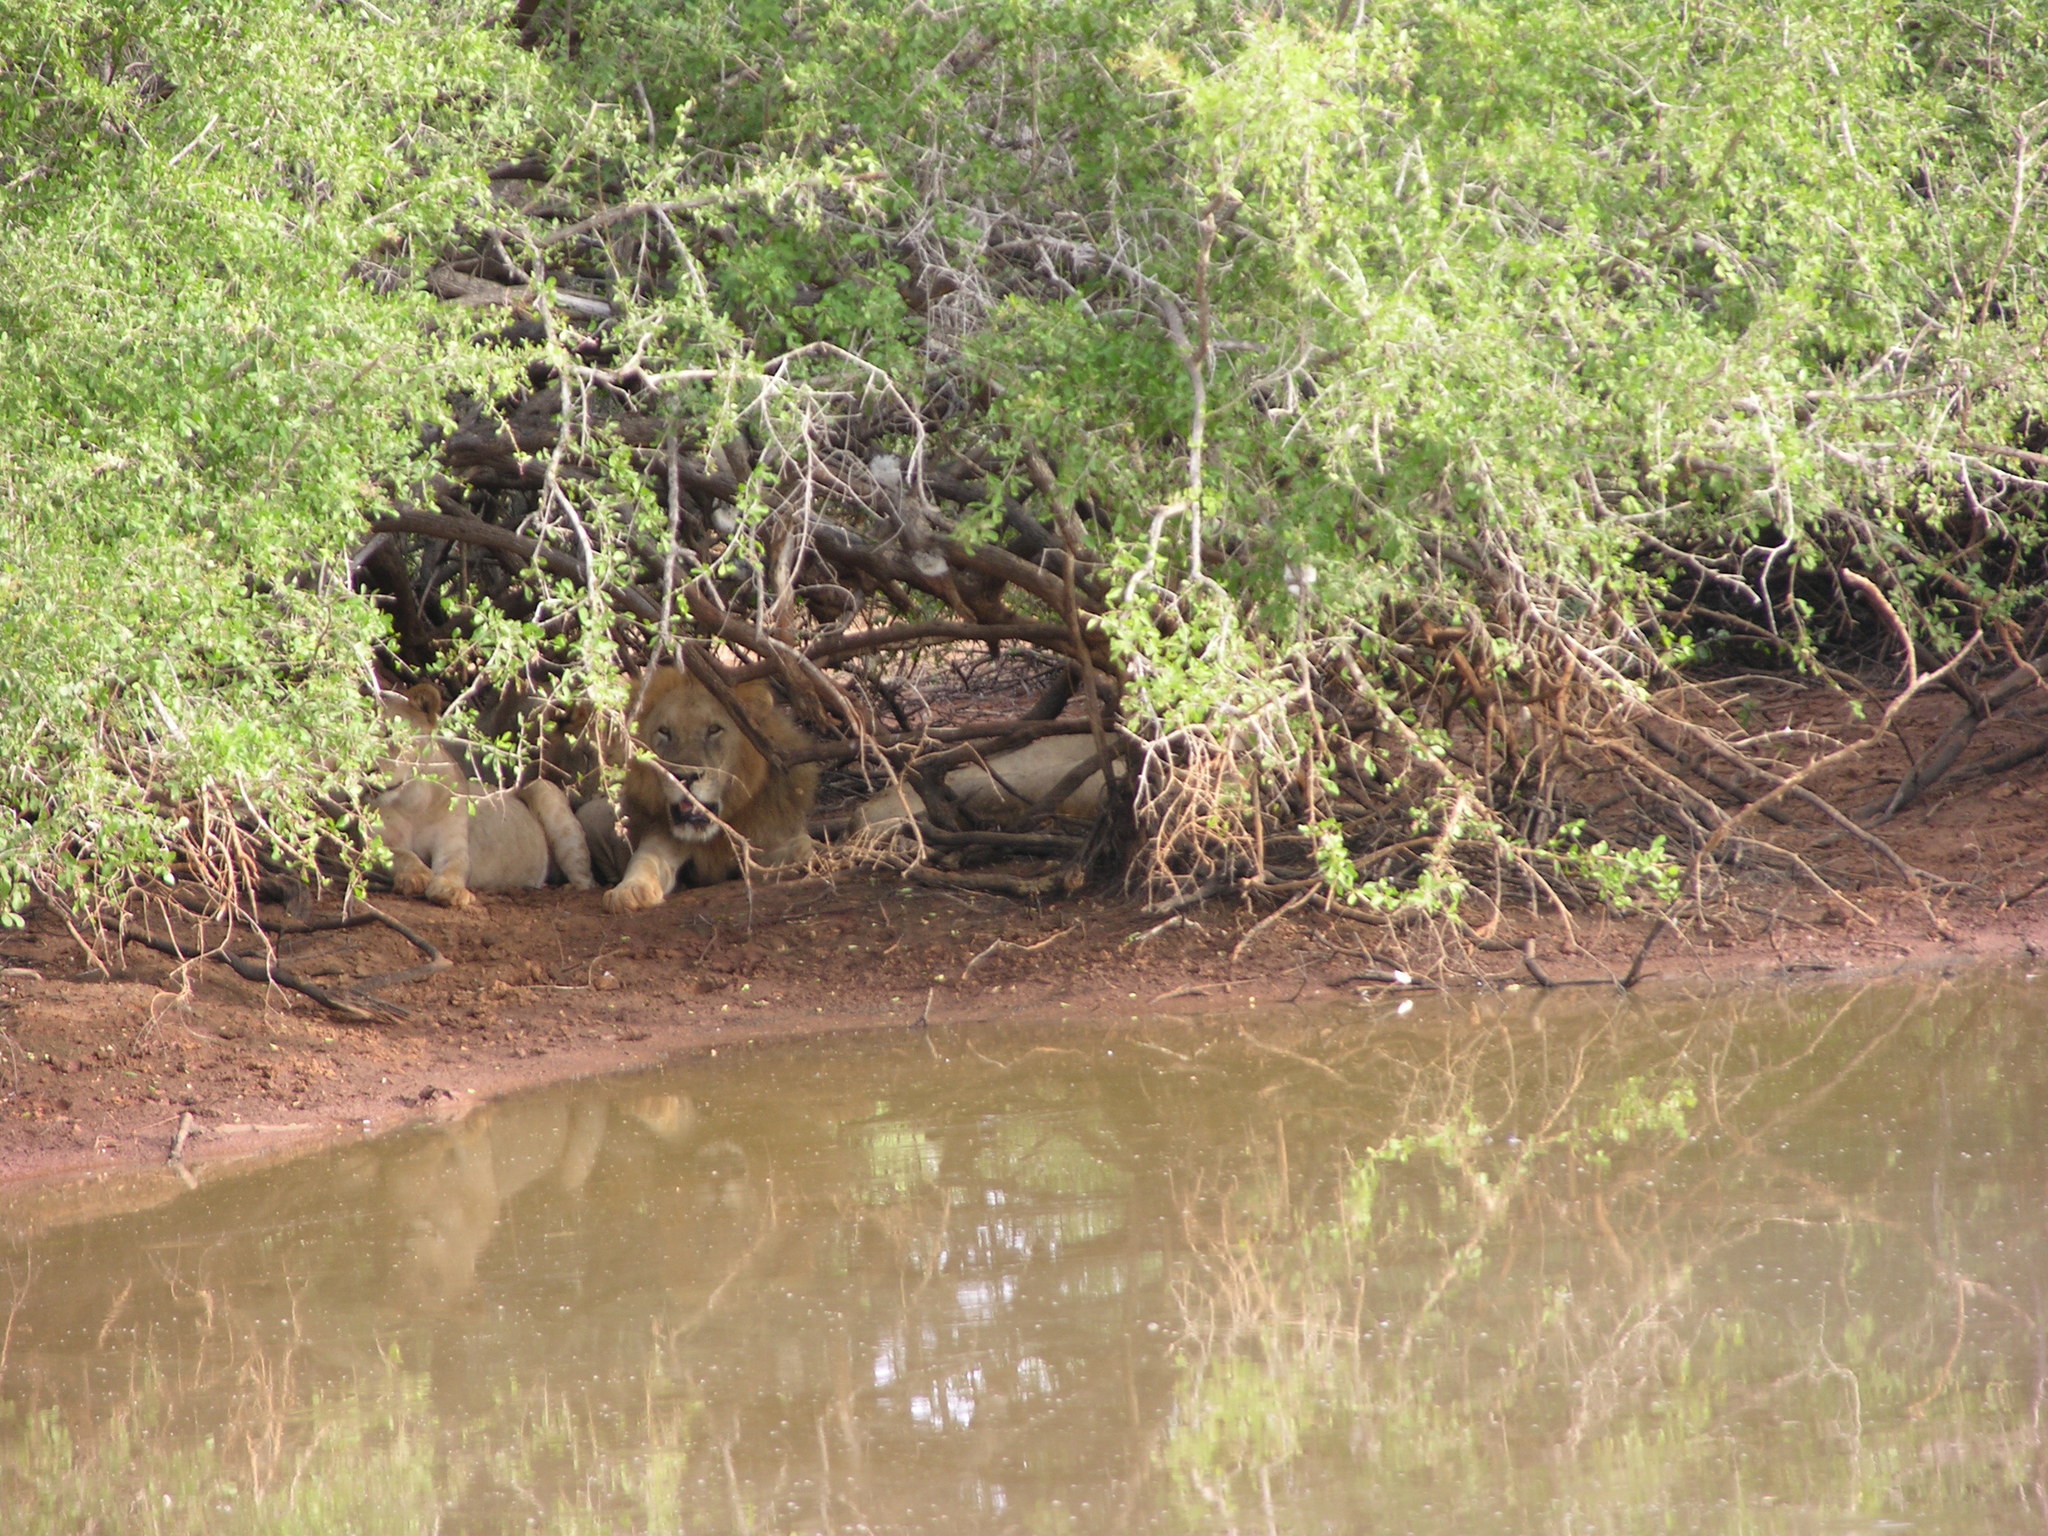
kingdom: Animalia
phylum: Chordata
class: Mammalia
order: Carnivora
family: Felidae
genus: Panthera
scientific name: Panthera leo
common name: Lion
